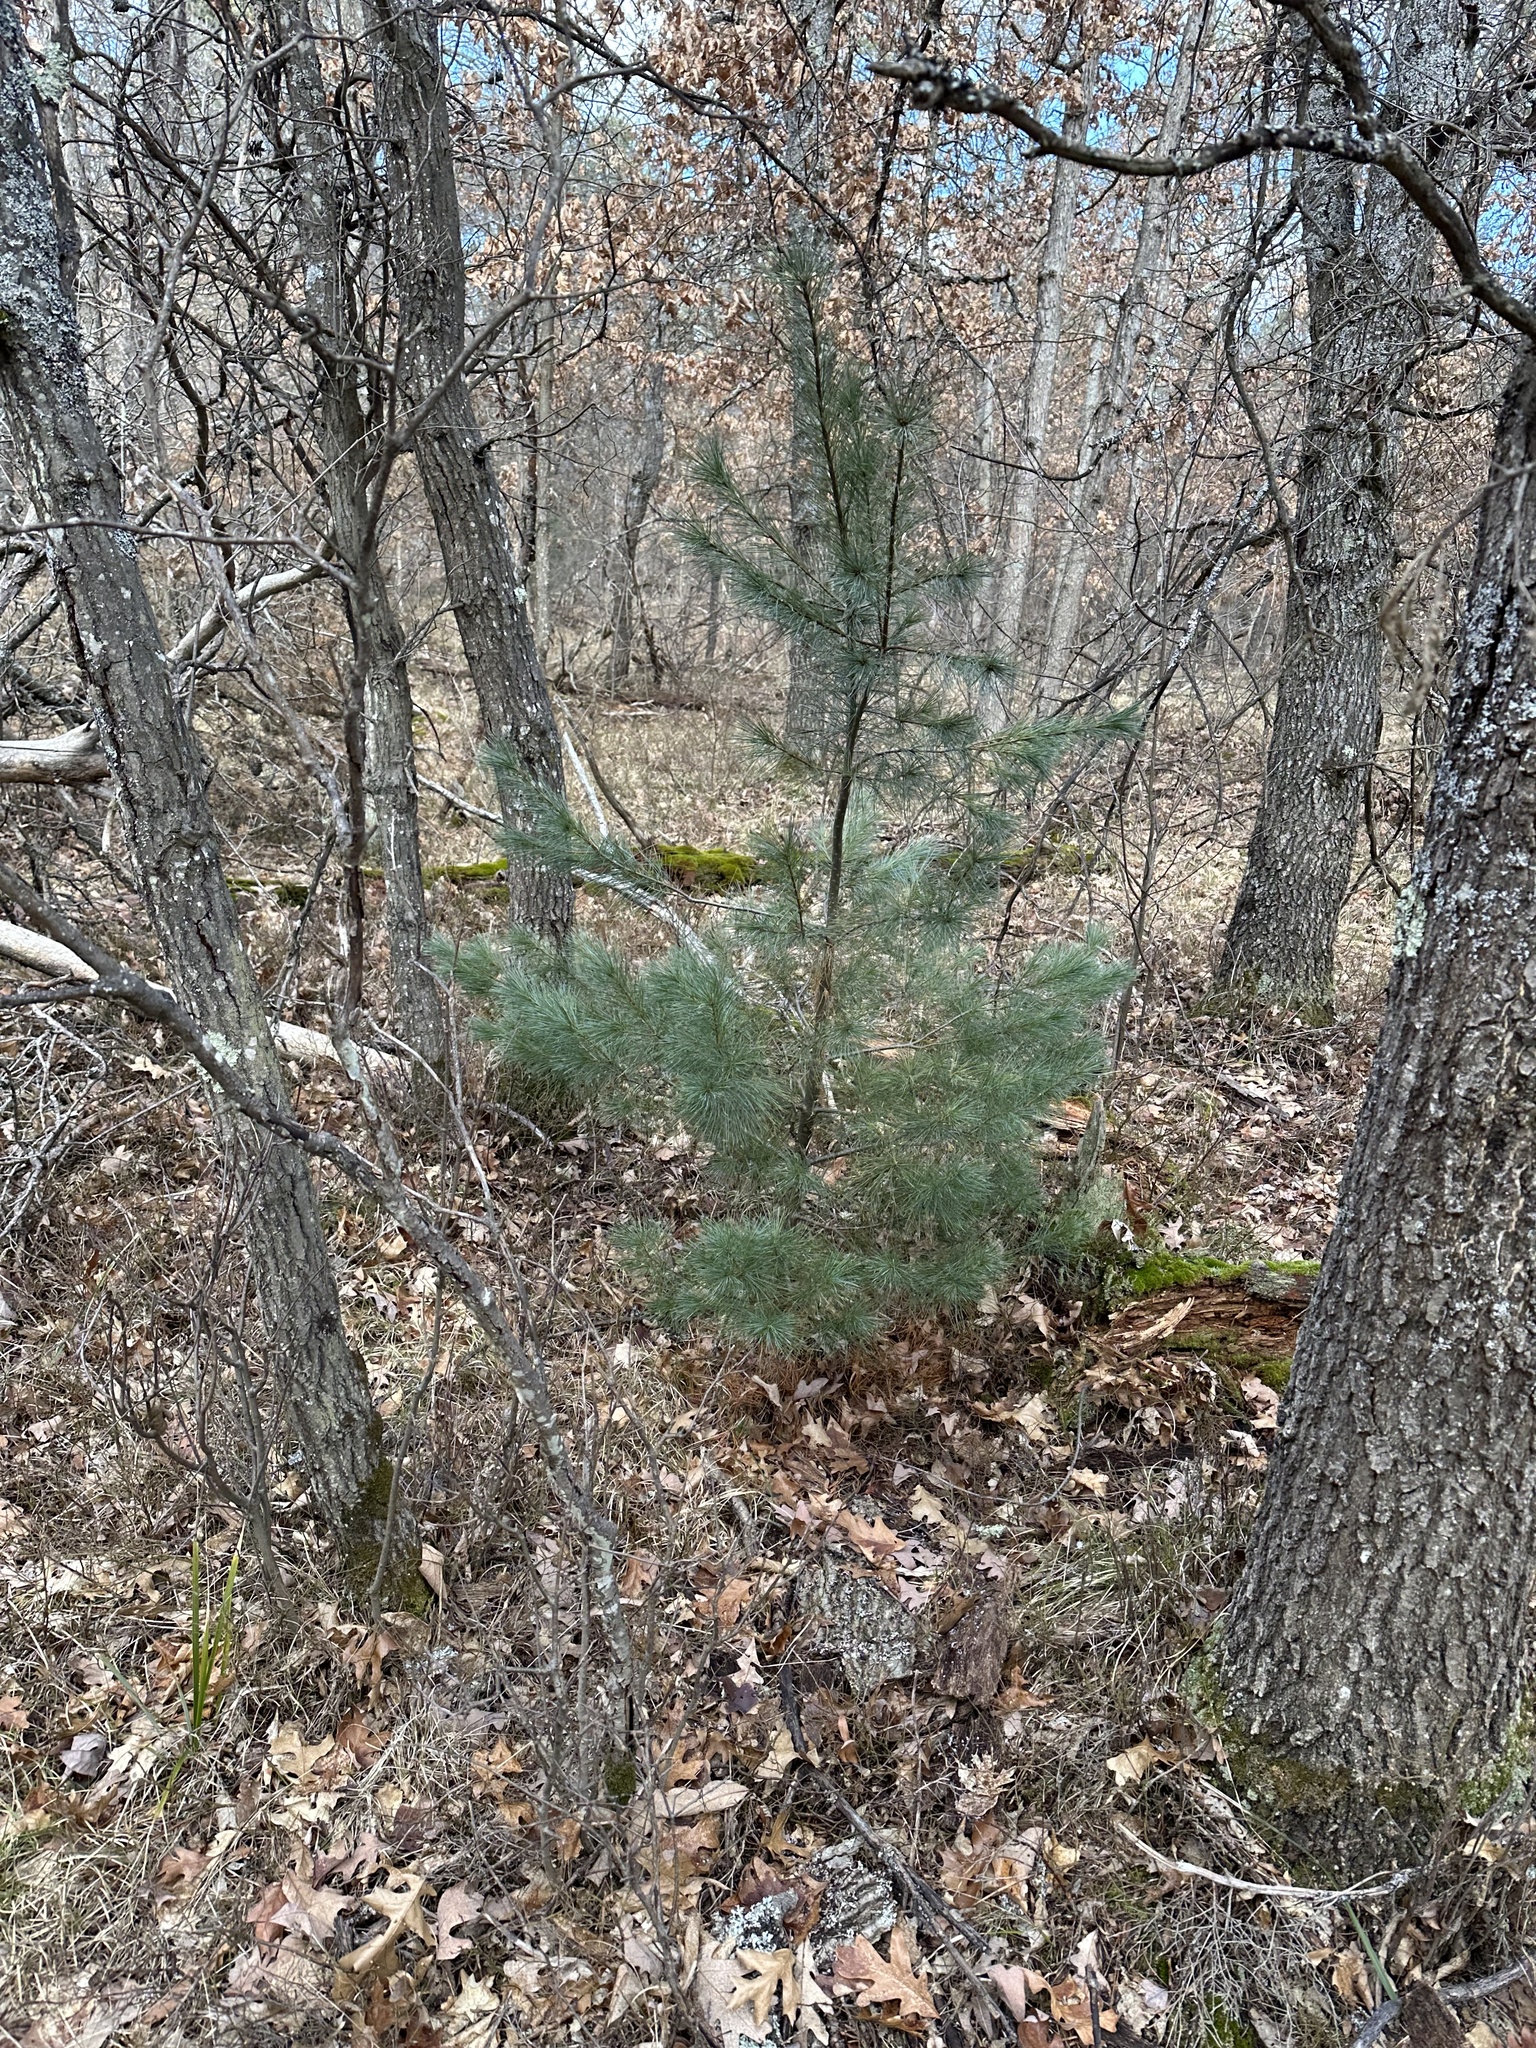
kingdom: Plantae
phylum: Tracheophyta
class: Pinopsida
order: Pinales
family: Pinaceae
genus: Pinus
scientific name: Pinus strobus
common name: Weymouth pine
